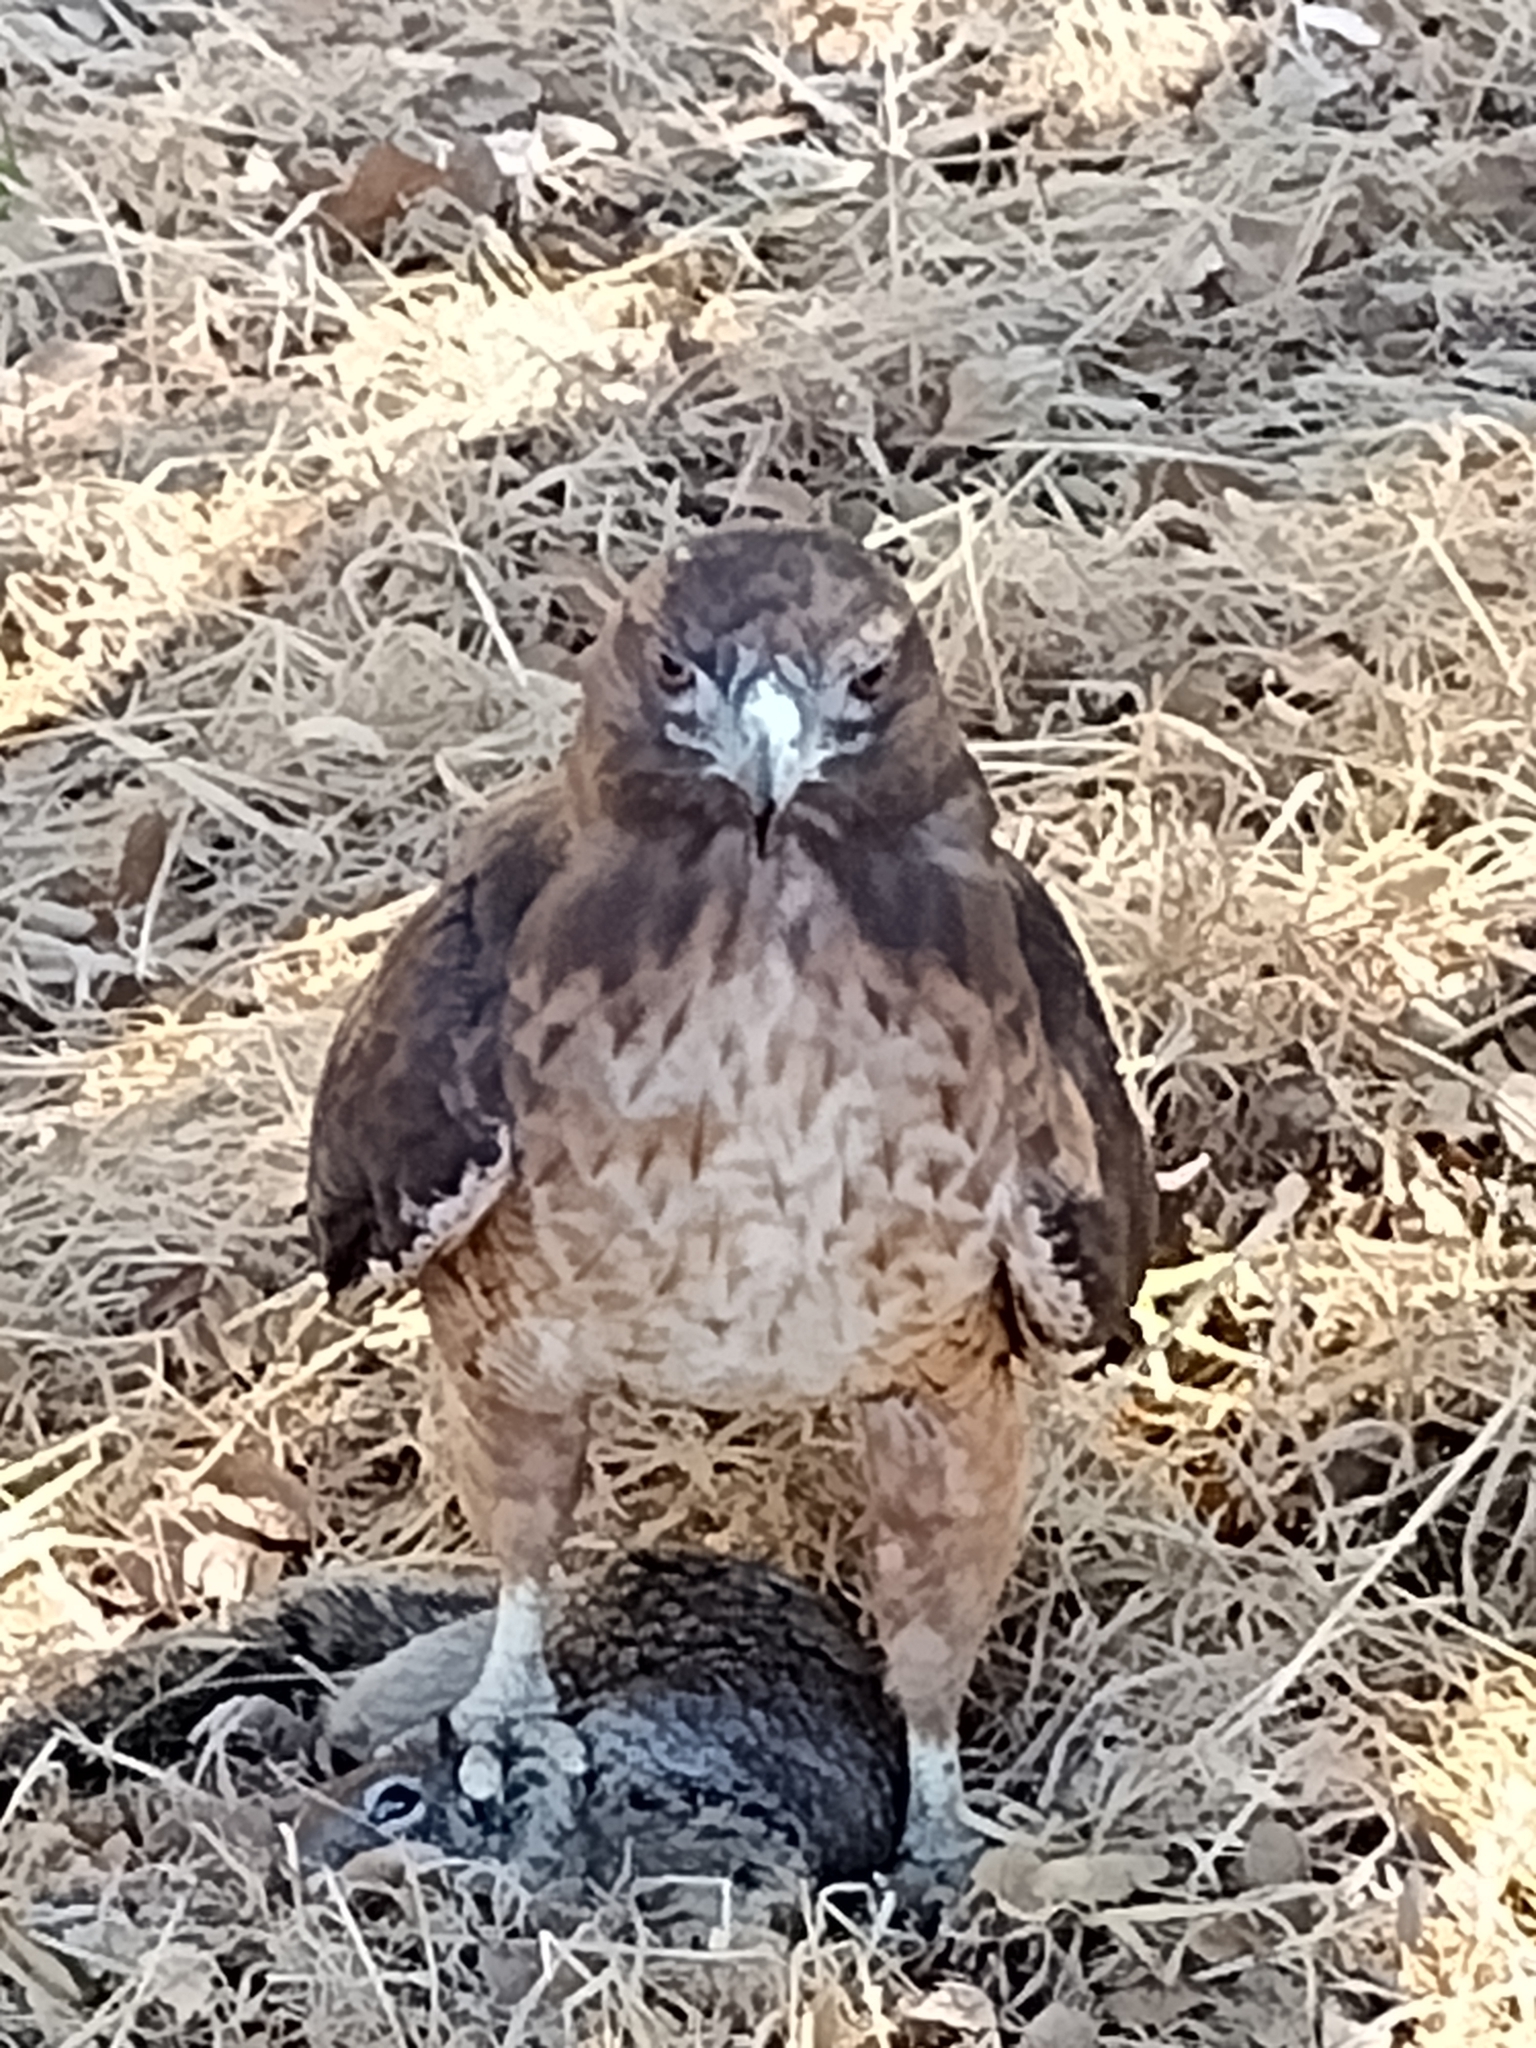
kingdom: Animalia
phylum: Chordata
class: Aves
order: Accipitriformes
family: Accipitridae
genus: Buteo
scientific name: Buteo jamaicensis
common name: Red-tailed hawk
